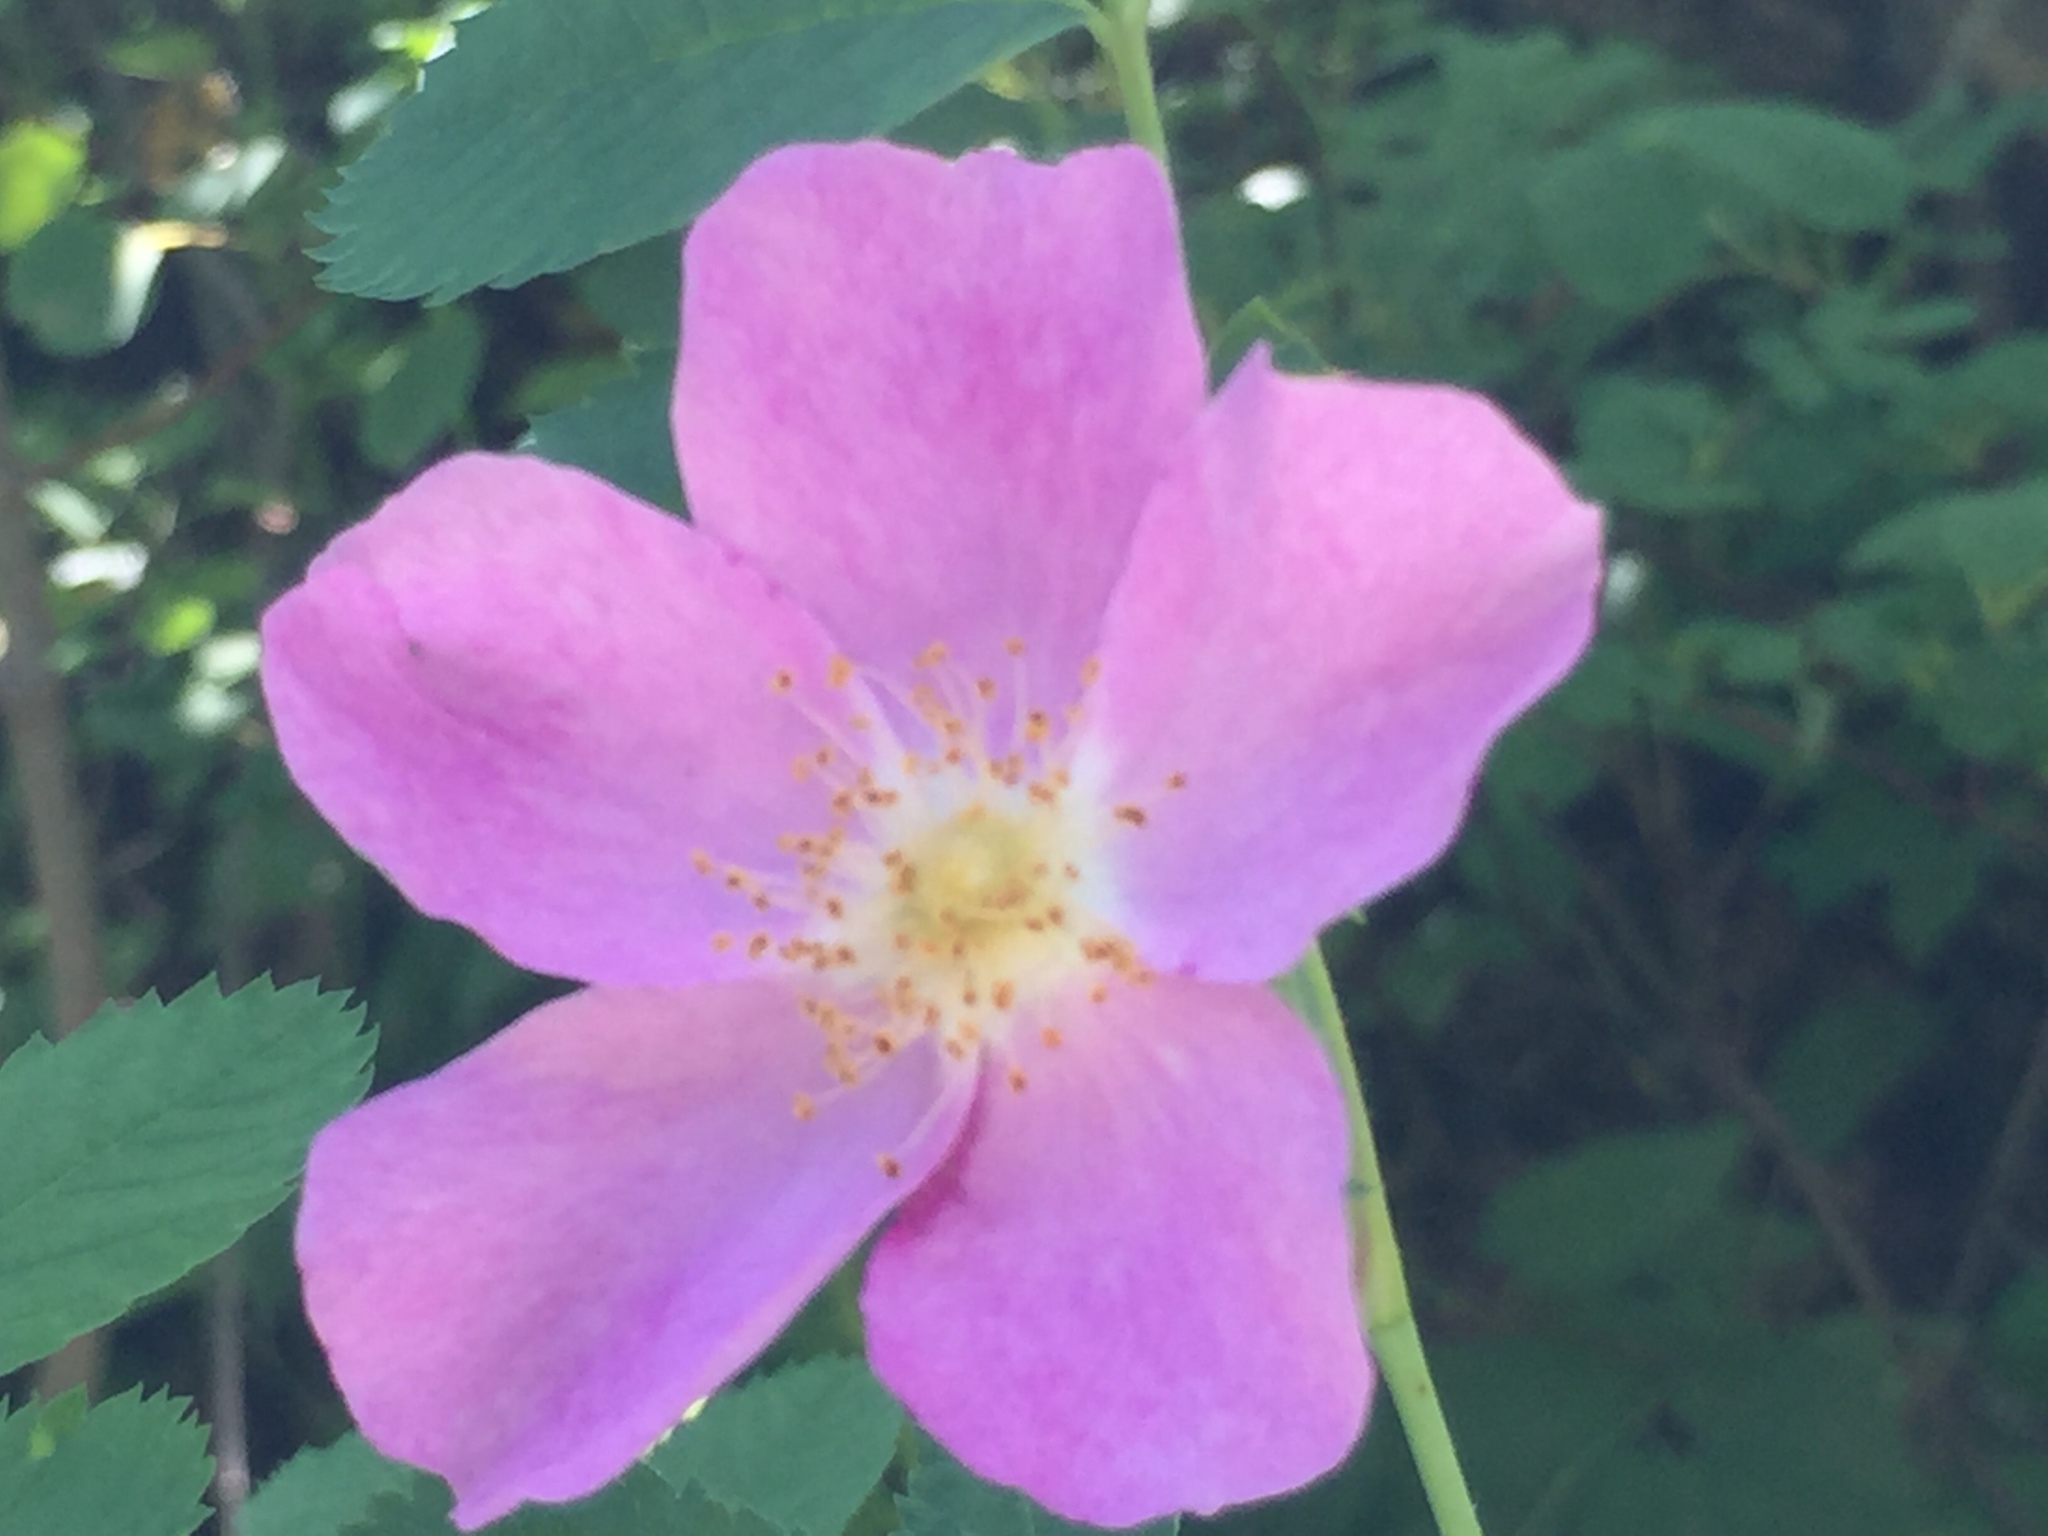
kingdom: Plantae
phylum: Tracheophyta
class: Magnoliopsida
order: Rosales
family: Rosaceae
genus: Rosa
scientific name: Rosa woodsii
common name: Woods's rose
